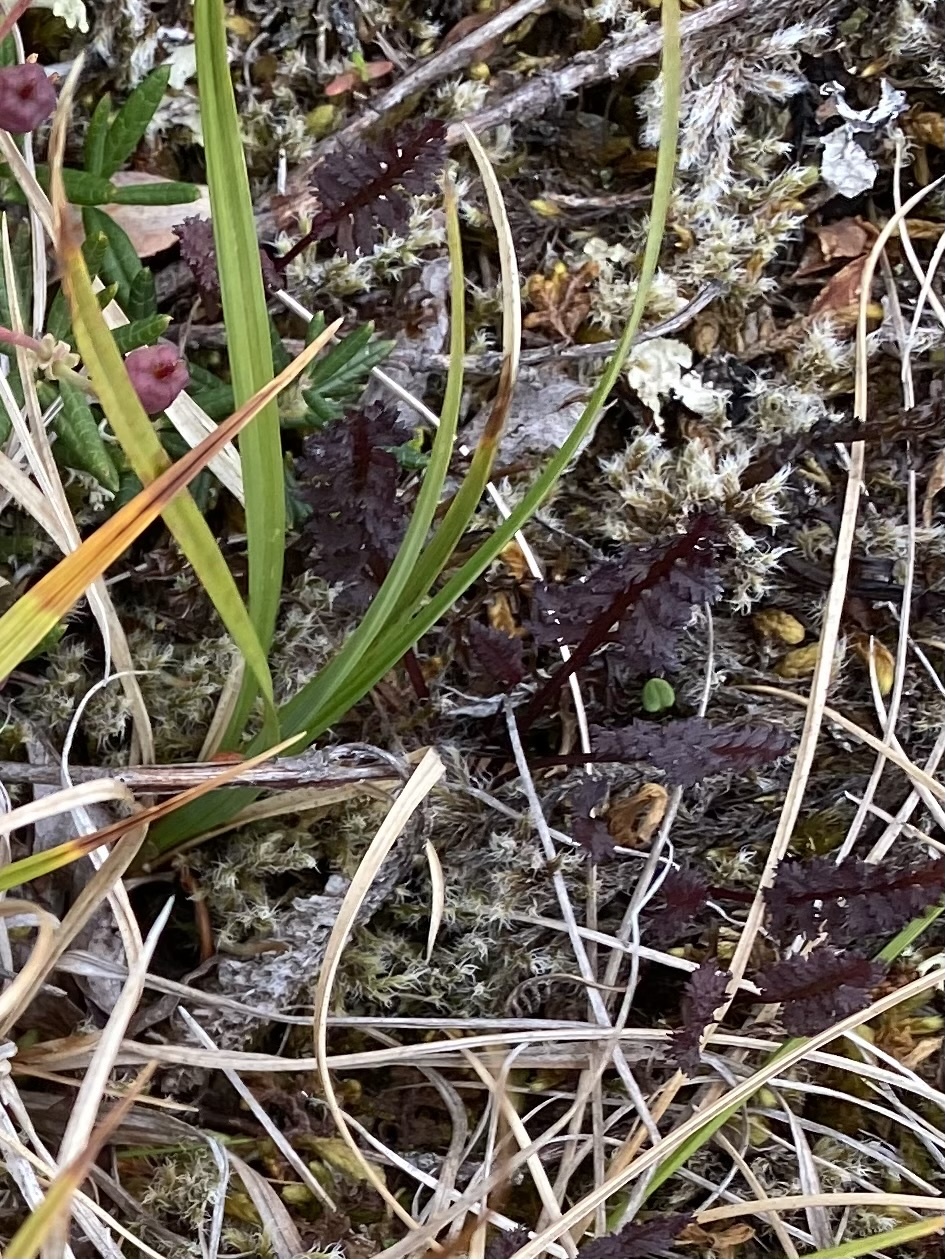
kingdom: Plantae
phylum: Tracheophyta
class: Magnoliopsida
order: Lamiales
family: Orobanchaceae
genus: Pedicularis
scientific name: Pedicularis lapponica
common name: Lapland lousewort
